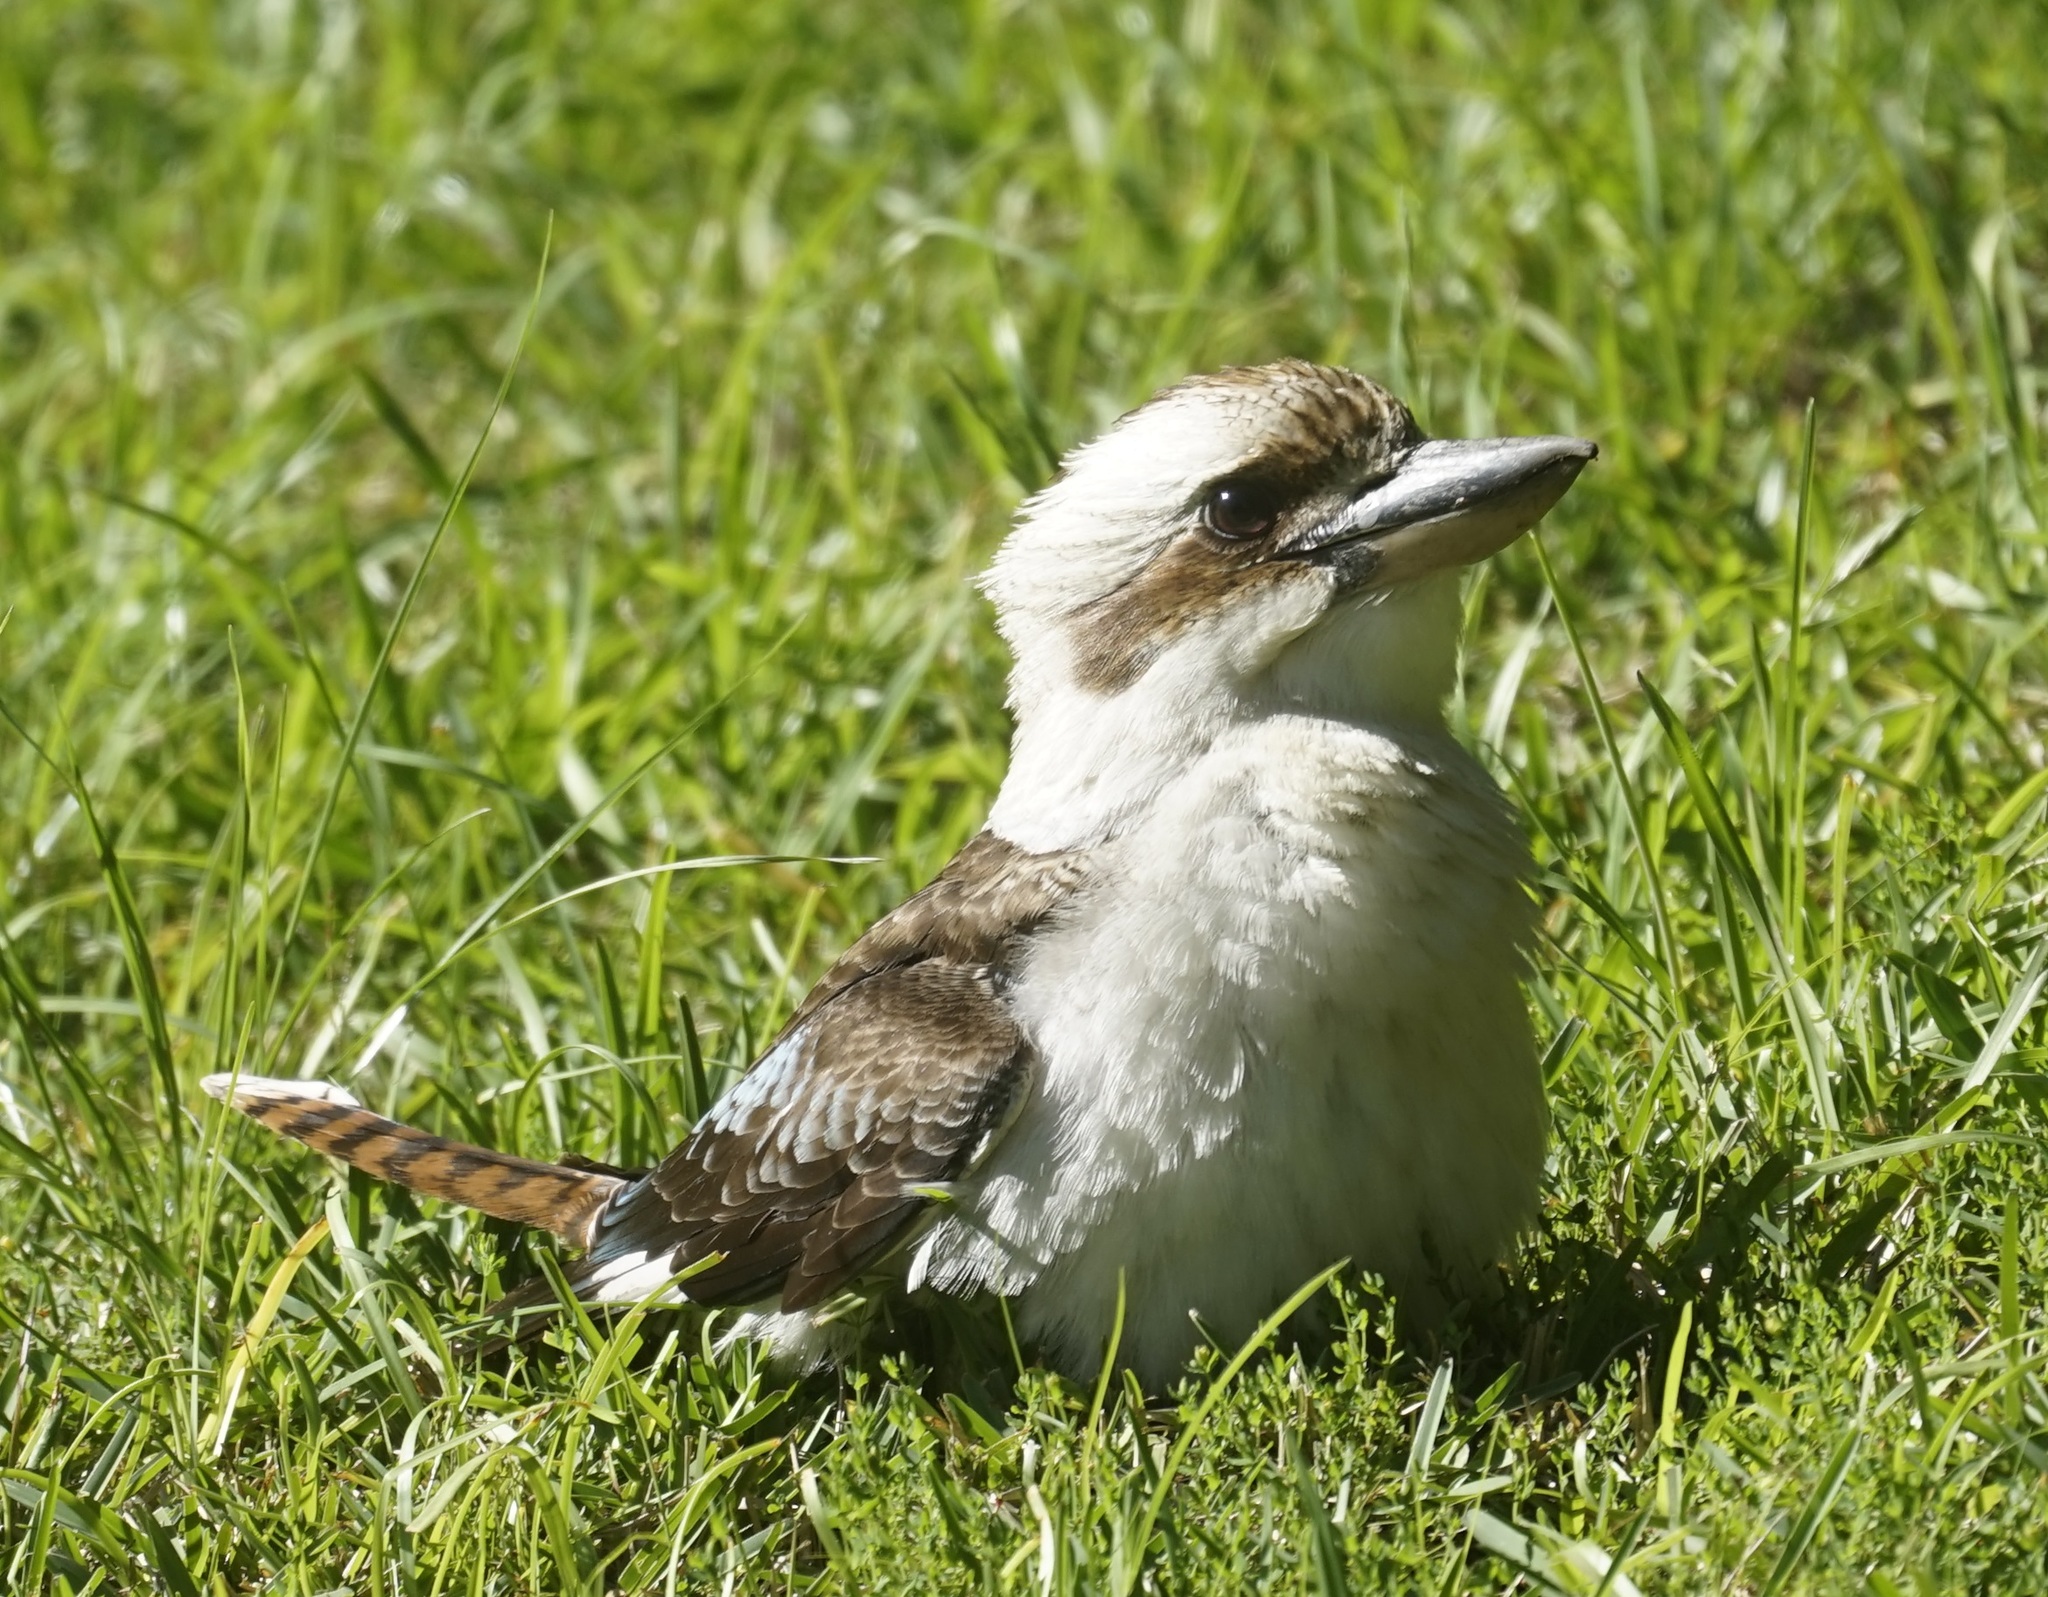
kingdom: Animalia
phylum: Chordata
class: Aves
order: Coraciiformes
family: Alcedinidae
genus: Dacelo
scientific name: Dacelo novaeguineae
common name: Laughing kookaburra
